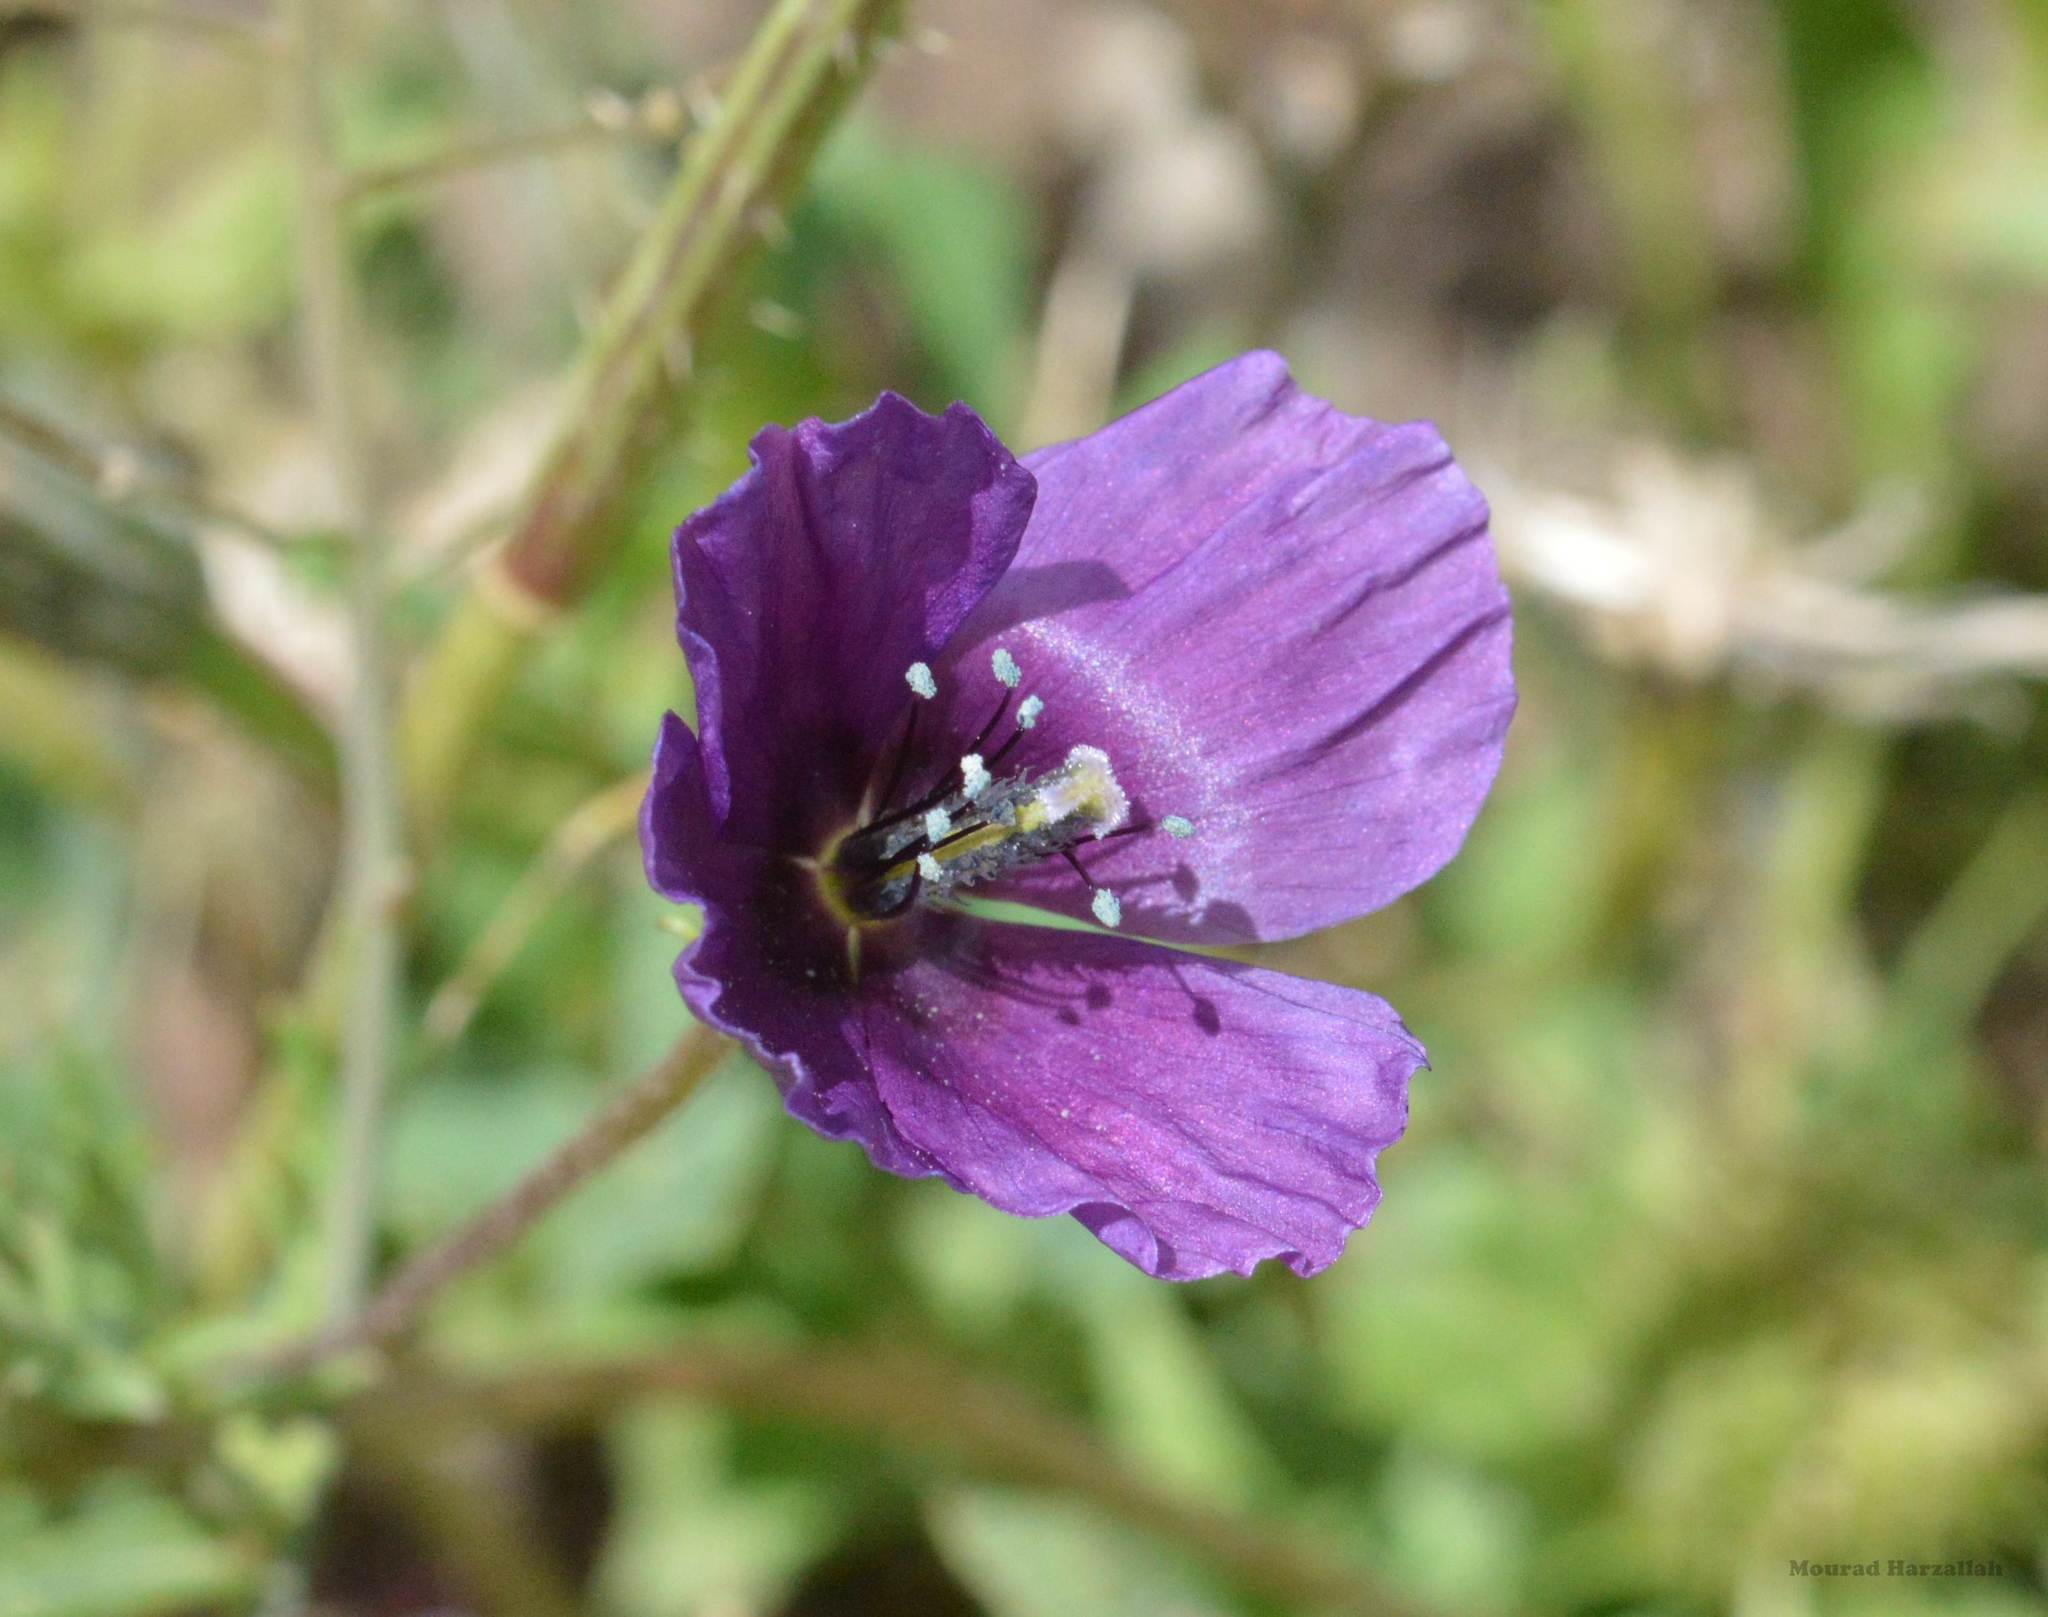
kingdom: Plantae
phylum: Tracheophyta
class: Magnoliopsida
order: Ranunculales
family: Papaveraceae
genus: Roemeria
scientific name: Roemeria hybrida
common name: Violet horned-poppy
